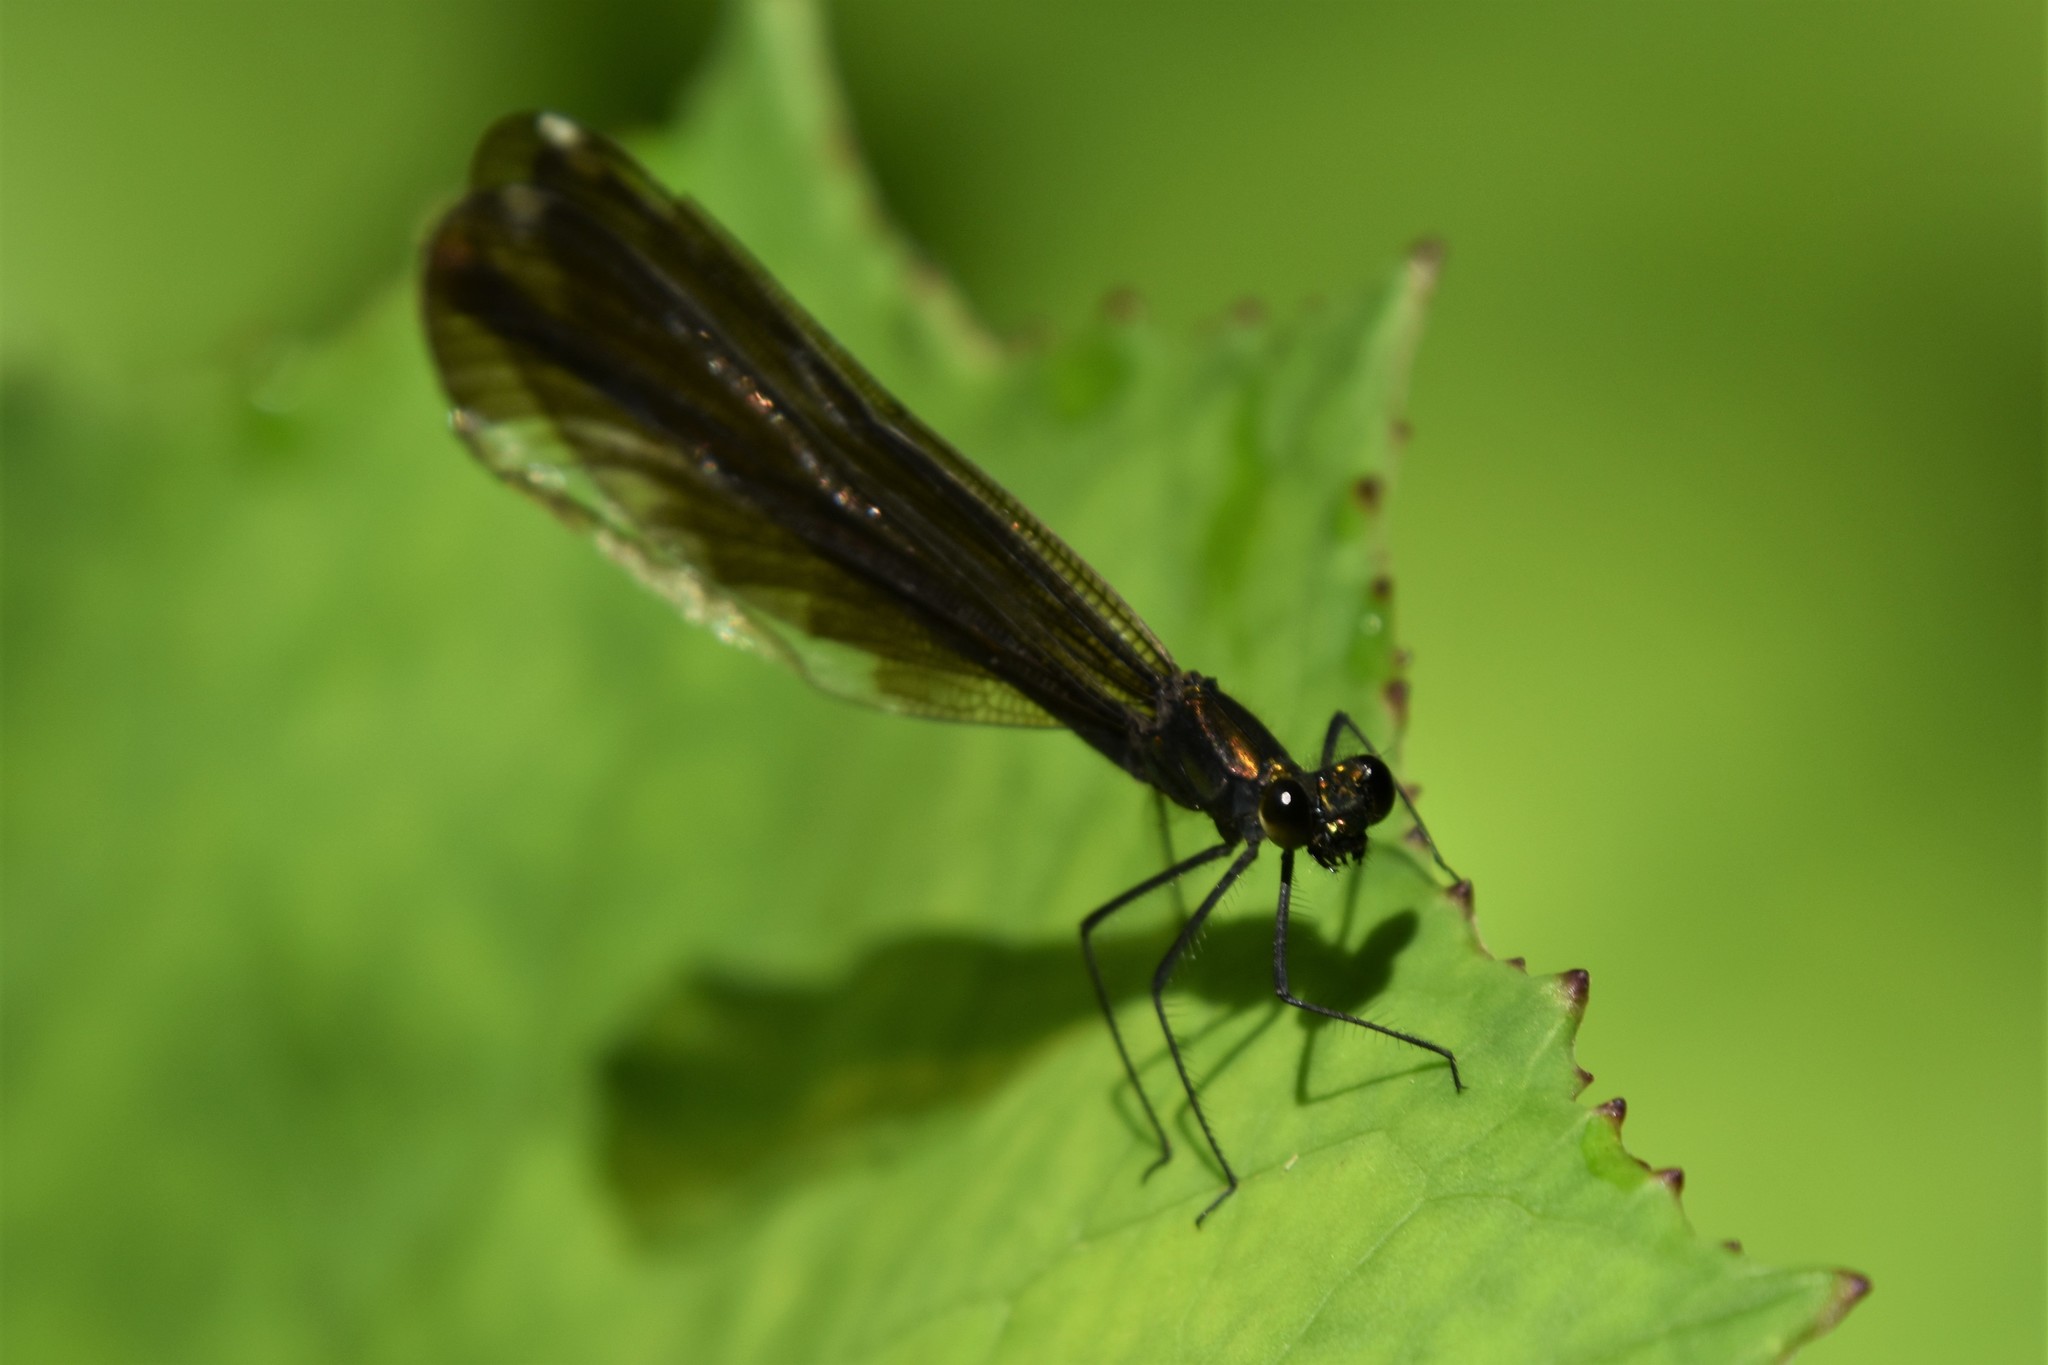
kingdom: Animalia
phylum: Arthropoda
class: Insecta
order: Odonata
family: Calopterygidae
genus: Calopteryx
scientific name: Calopteryx maculata
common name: Ebony jewelwing
